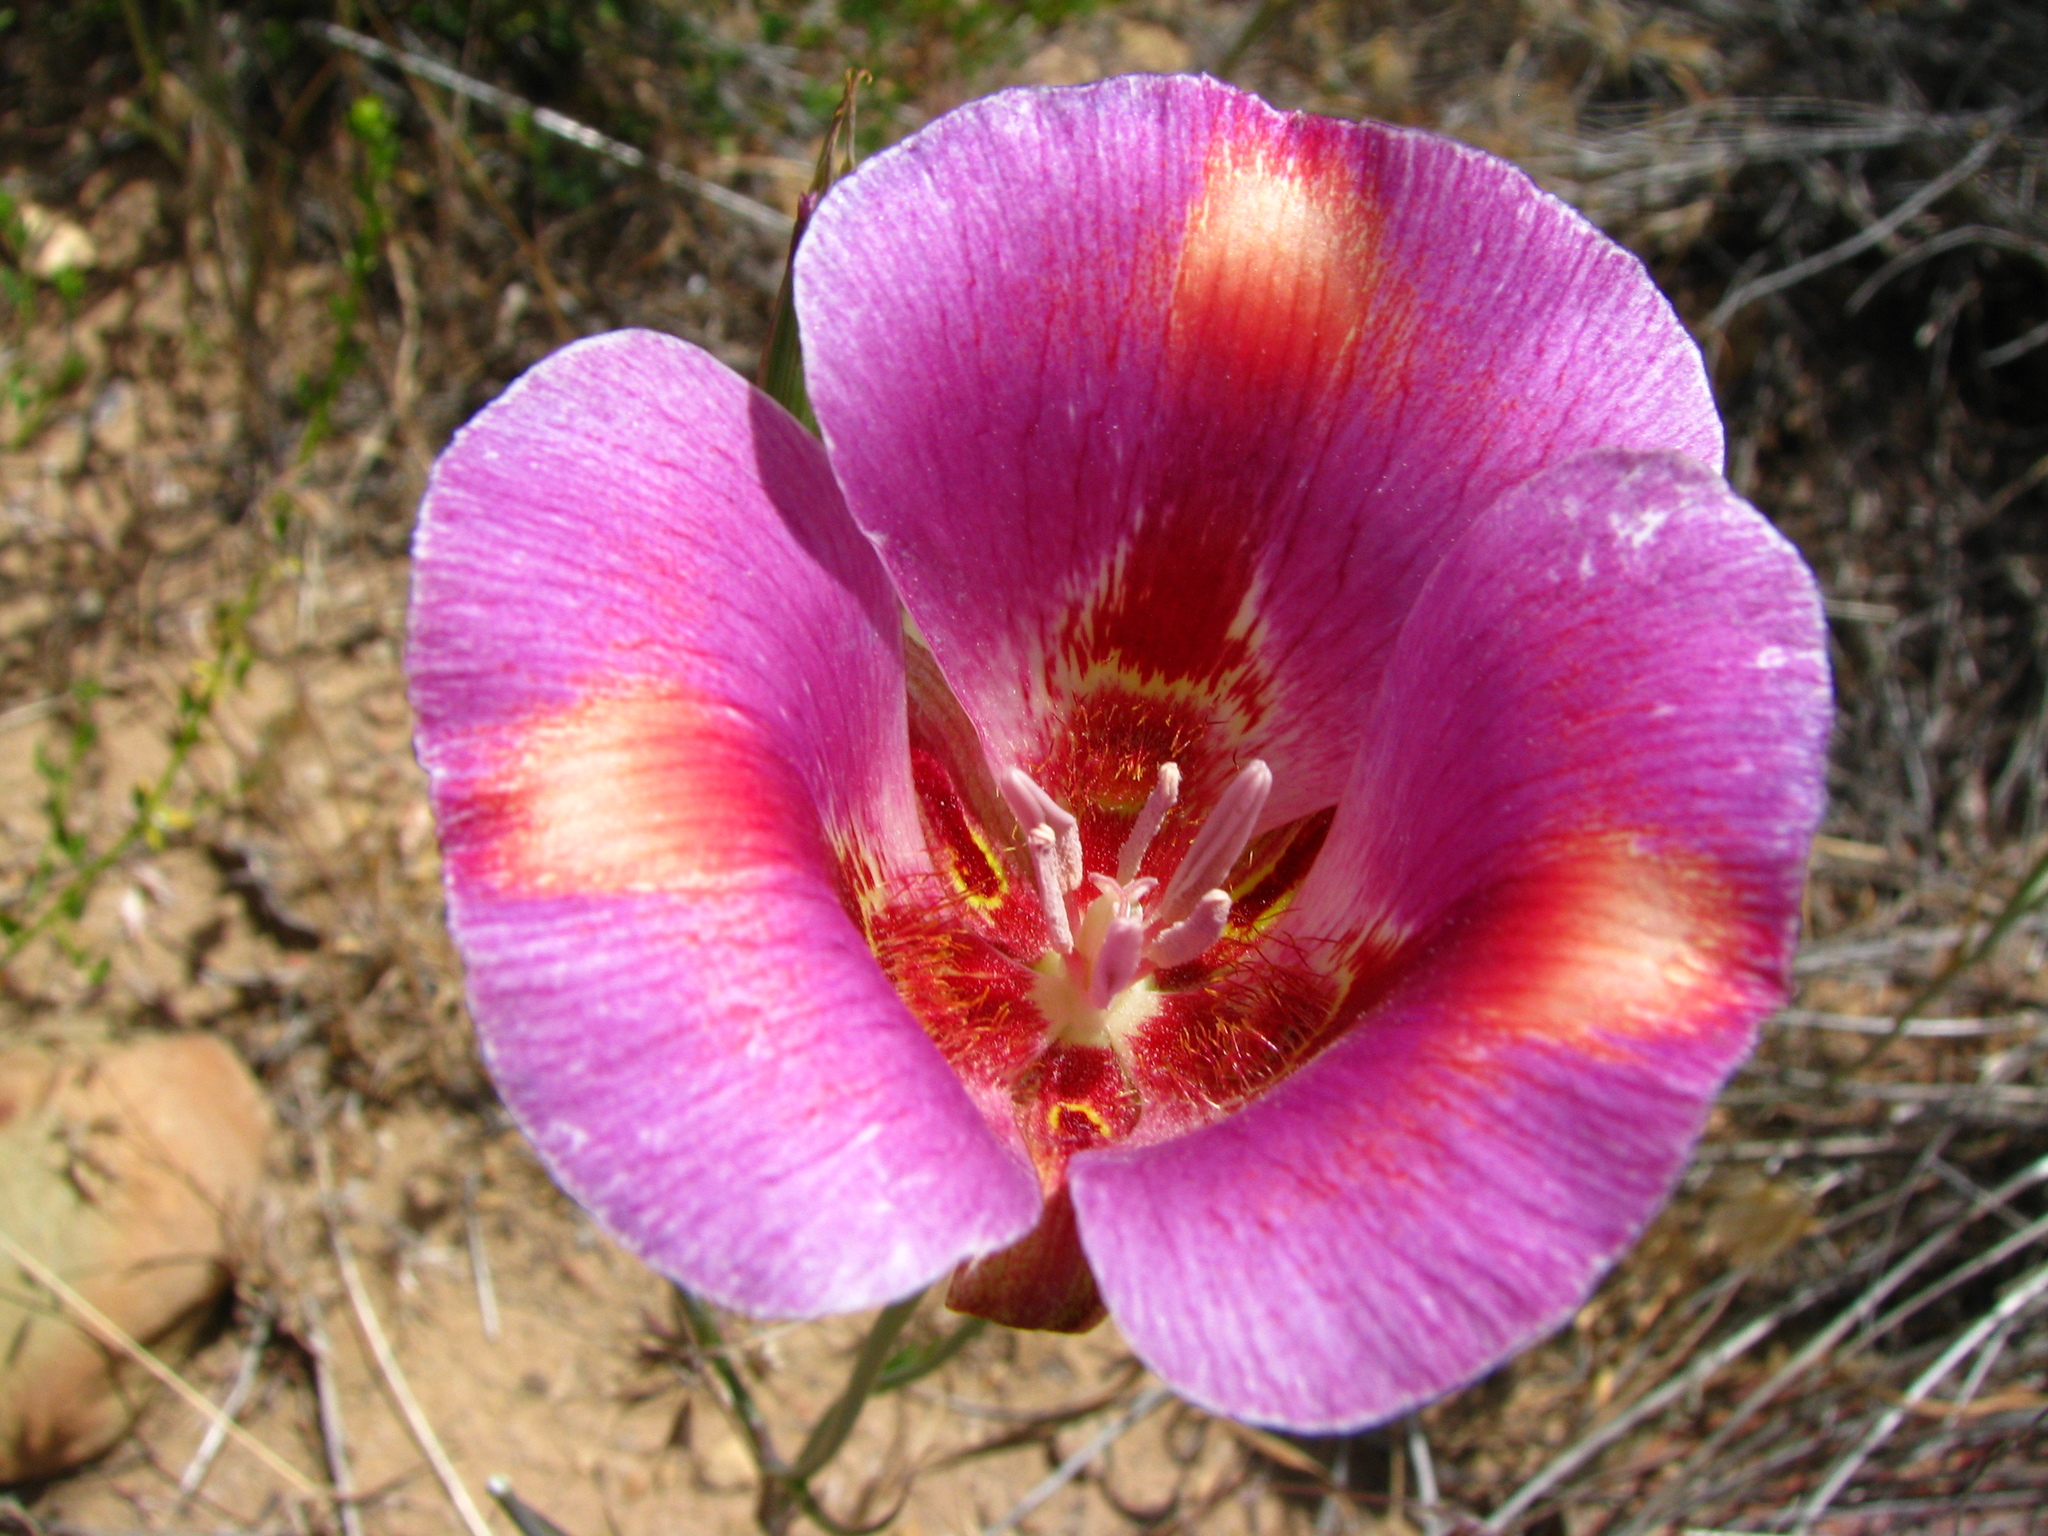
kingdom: Plantae
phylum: Tracheophyta
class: Liliopsida
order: Liliales
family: Liliaceae
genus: Calochortus
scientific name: Calochortus venustus
